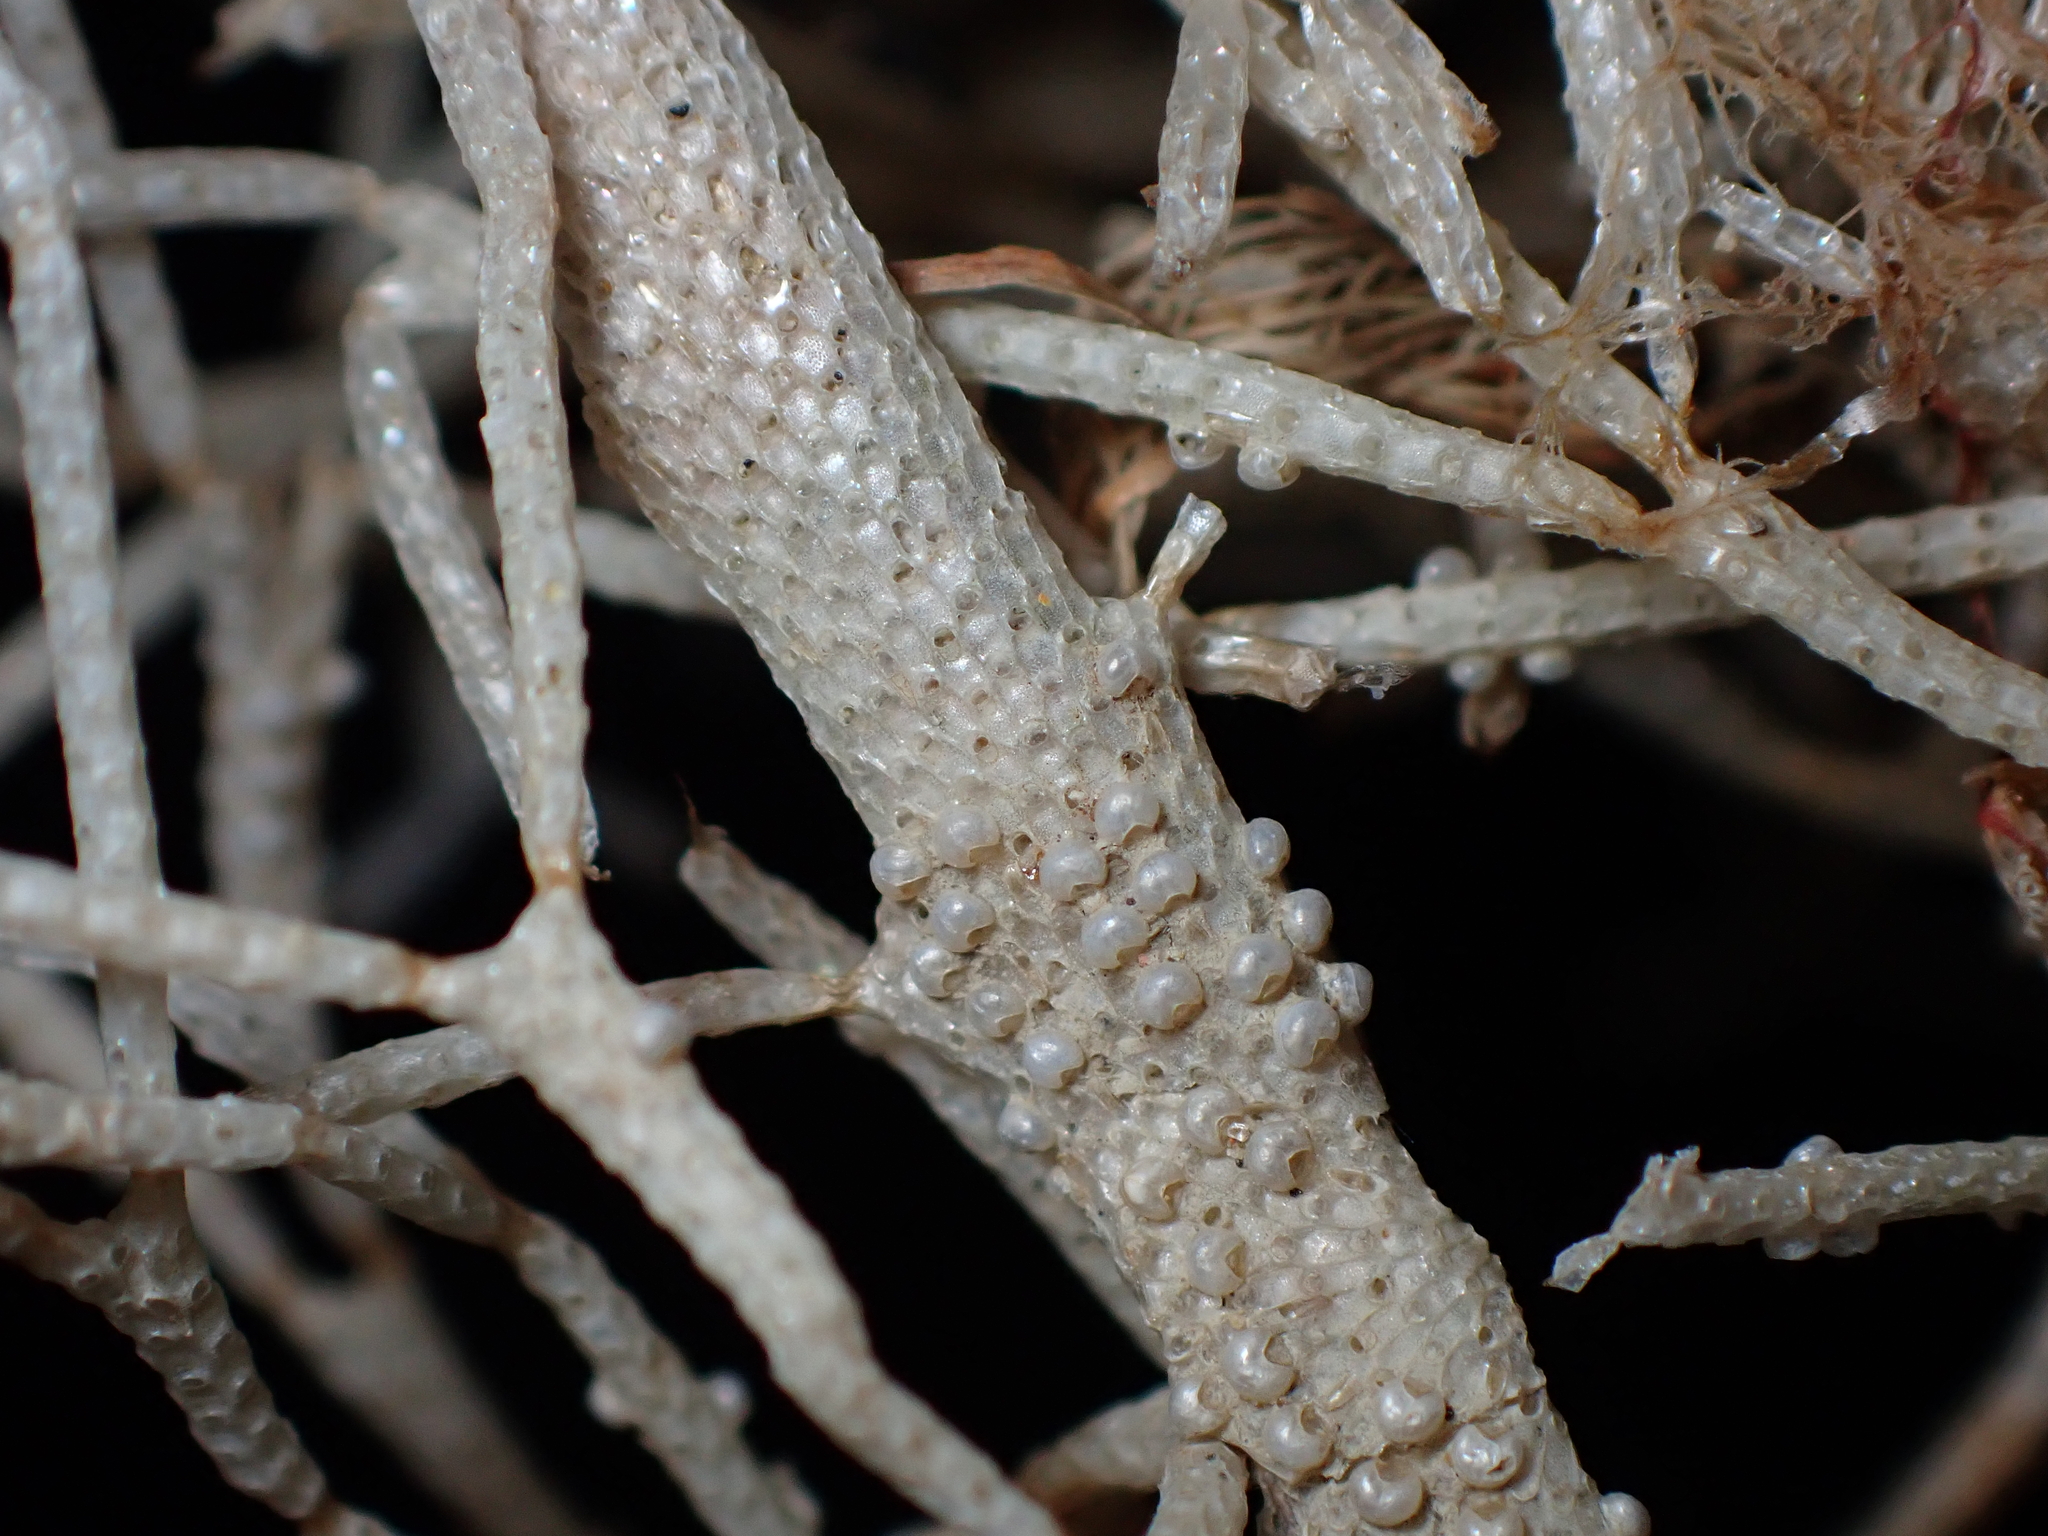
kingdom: Animalia
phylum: Bryozoa
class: Gymnolaemata
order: Cheilostomatida
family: Thalamoporellidae
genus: Thalamoporella
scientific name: Thalamoporella californica
